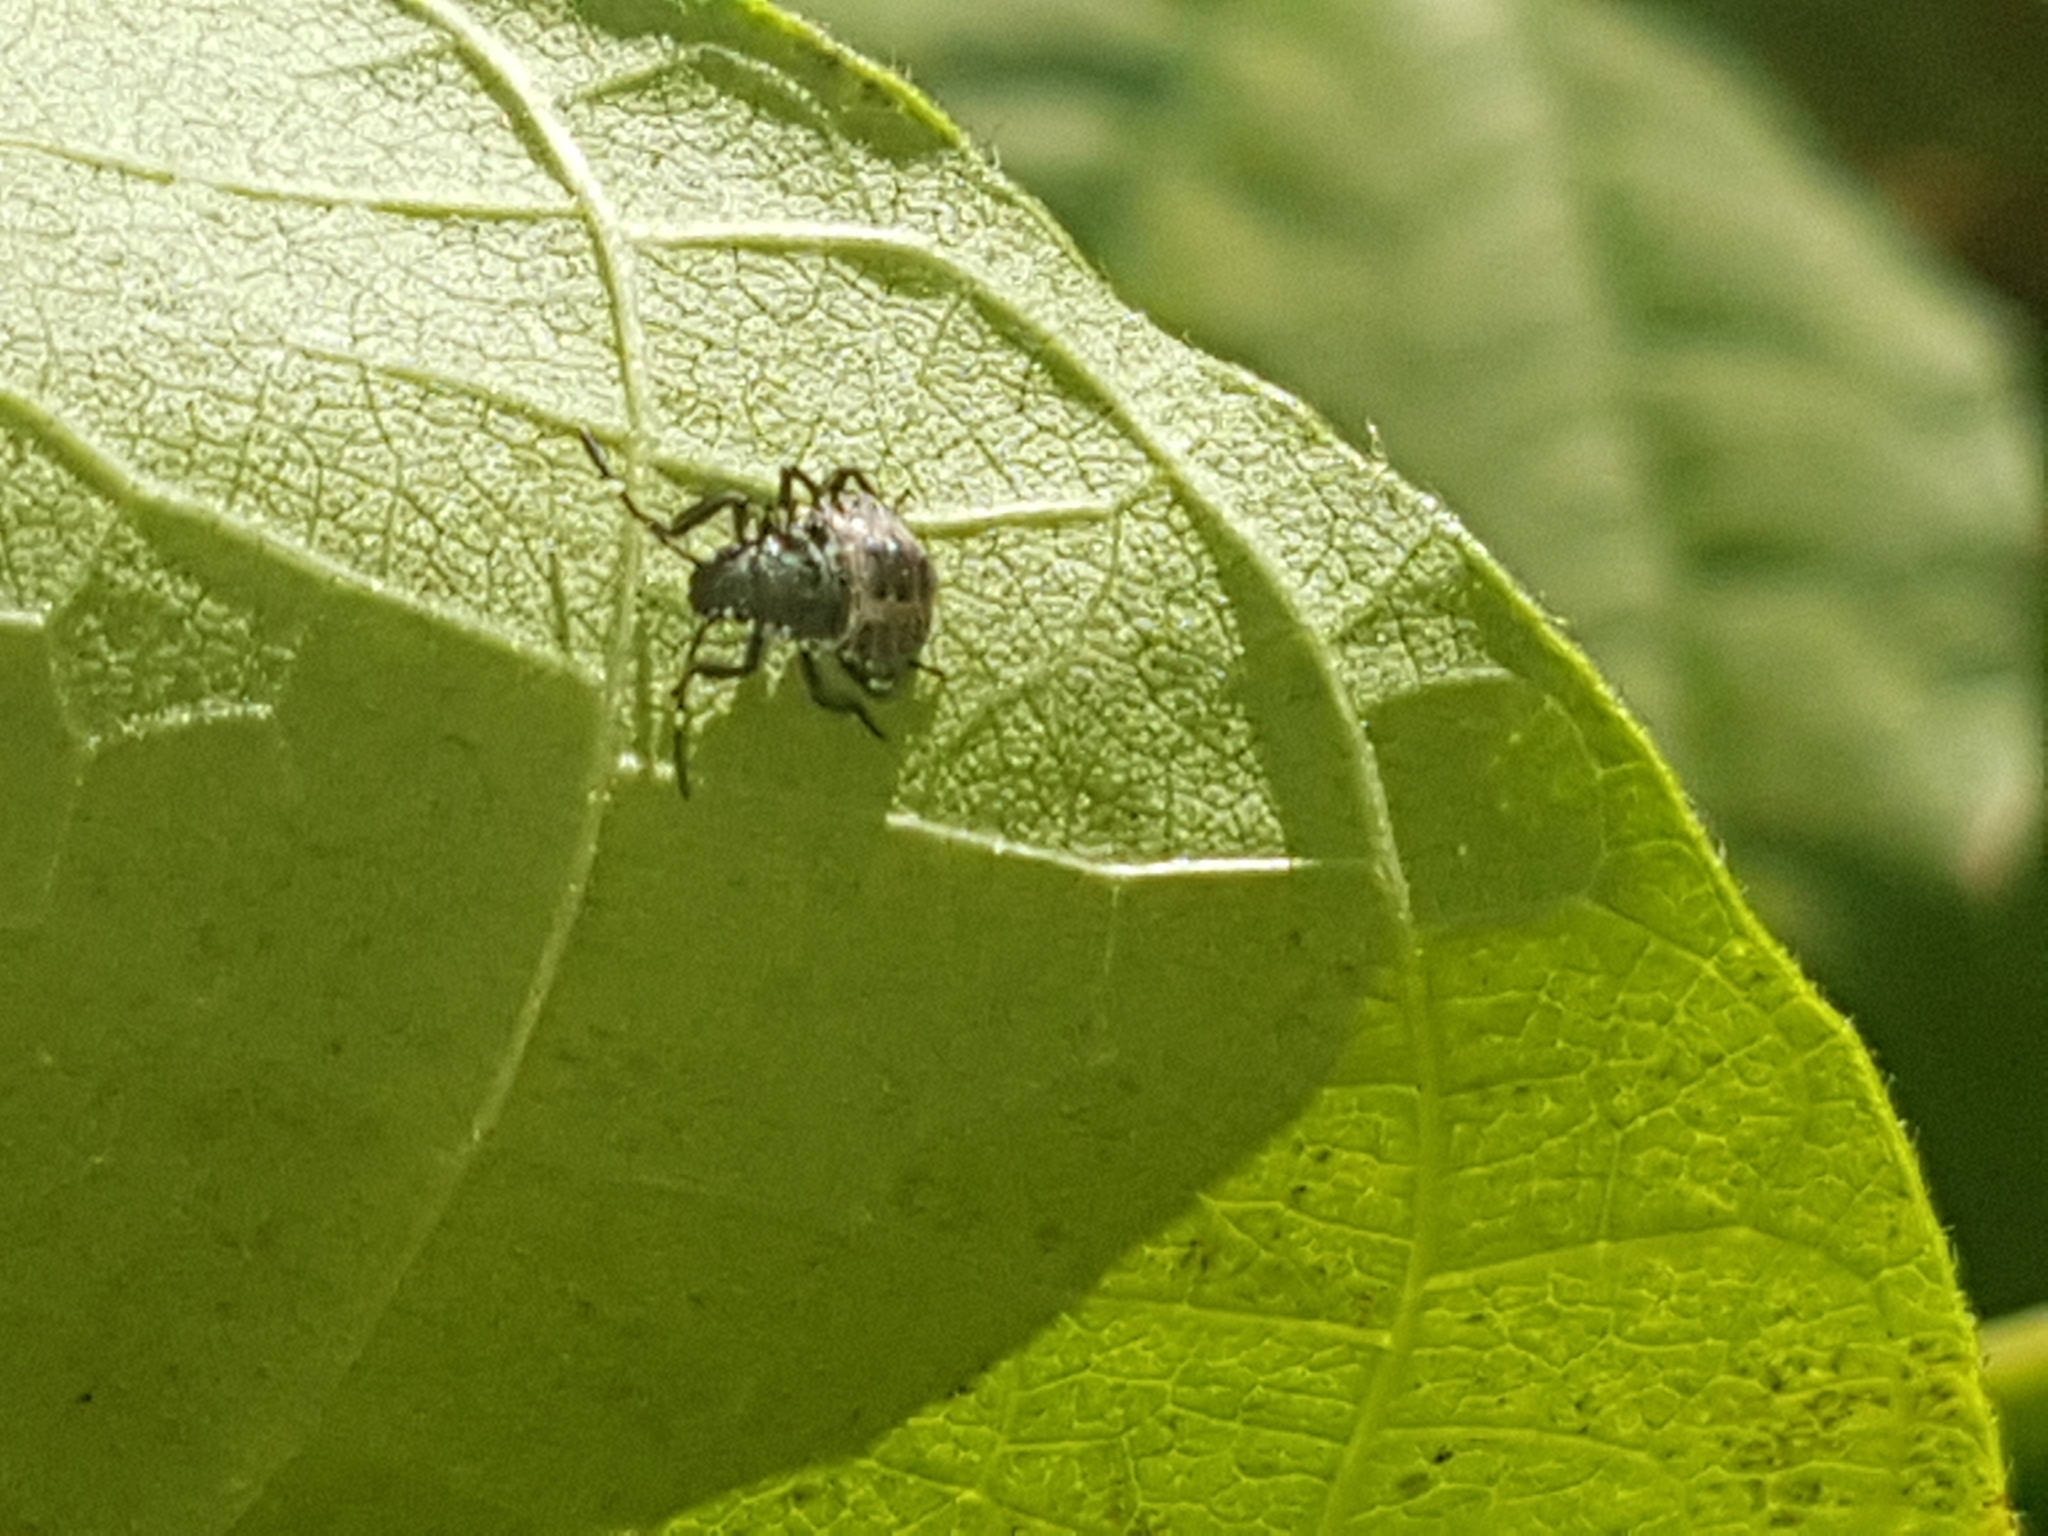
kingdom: Animalia
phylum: Arthropoda
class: Insecta
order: Hemiptera
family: Pentatomidae
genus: Halyomorpha
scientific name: Halyomorpha halys
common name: Brown marmorated stink bug
